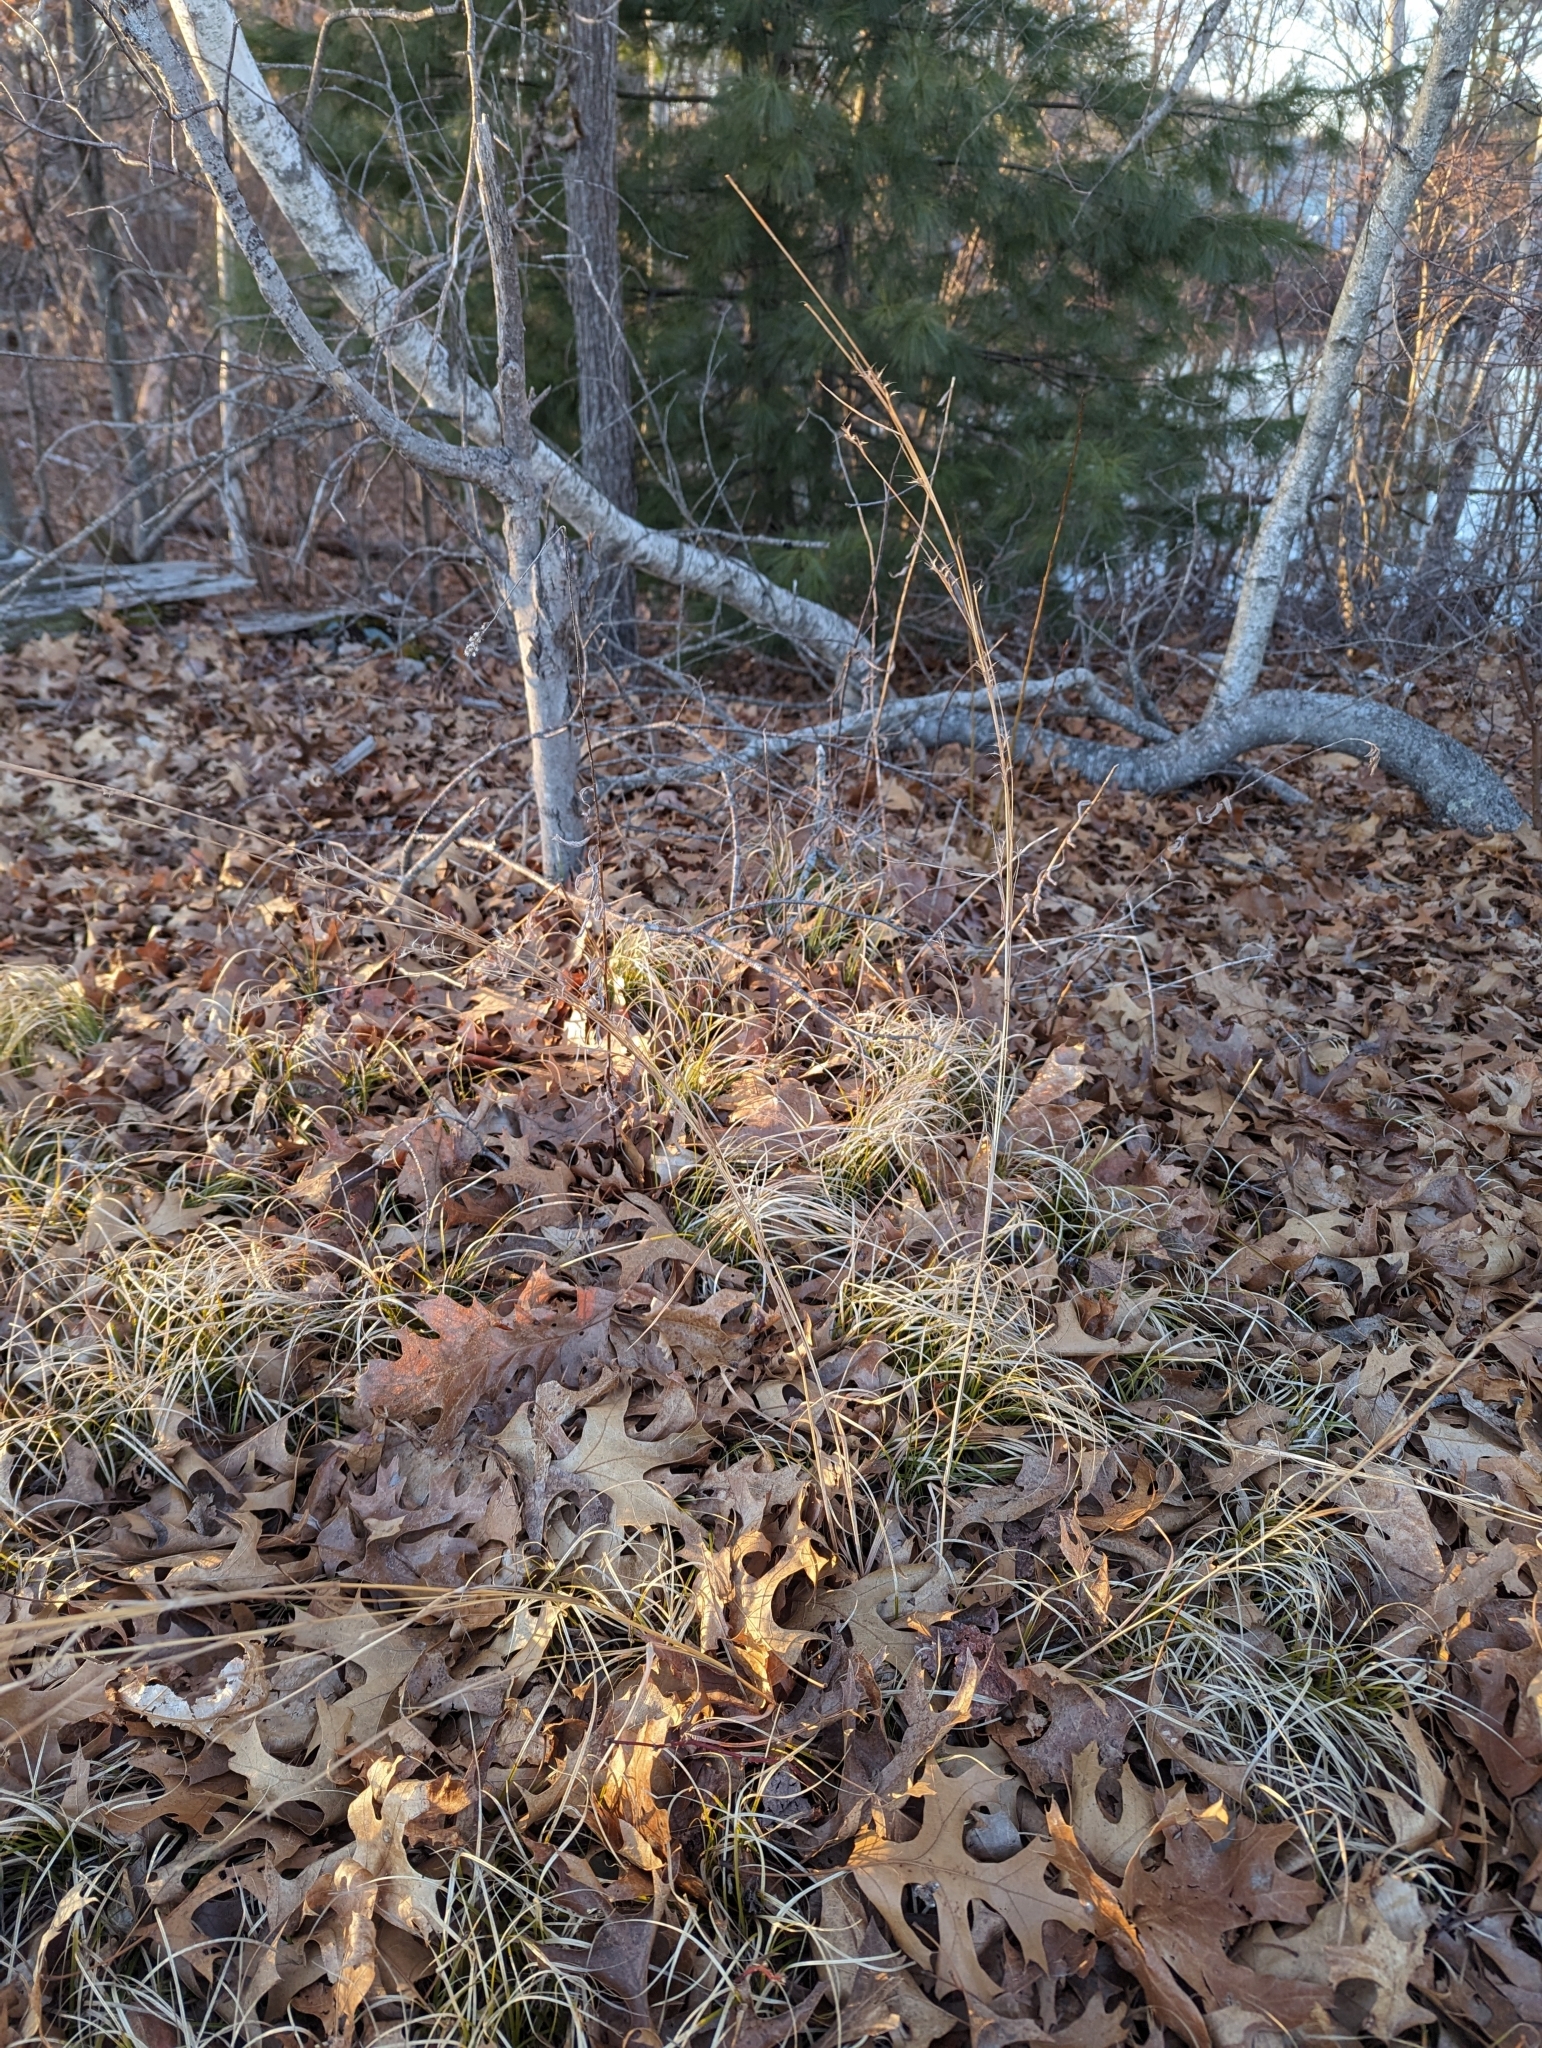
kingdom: Plantae
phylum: Tracheophyta
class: Liliopsida
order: Poales
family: Poaceae
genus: Schizachyrium
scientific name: Schizachyrium scoparium
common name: Little bluestem
